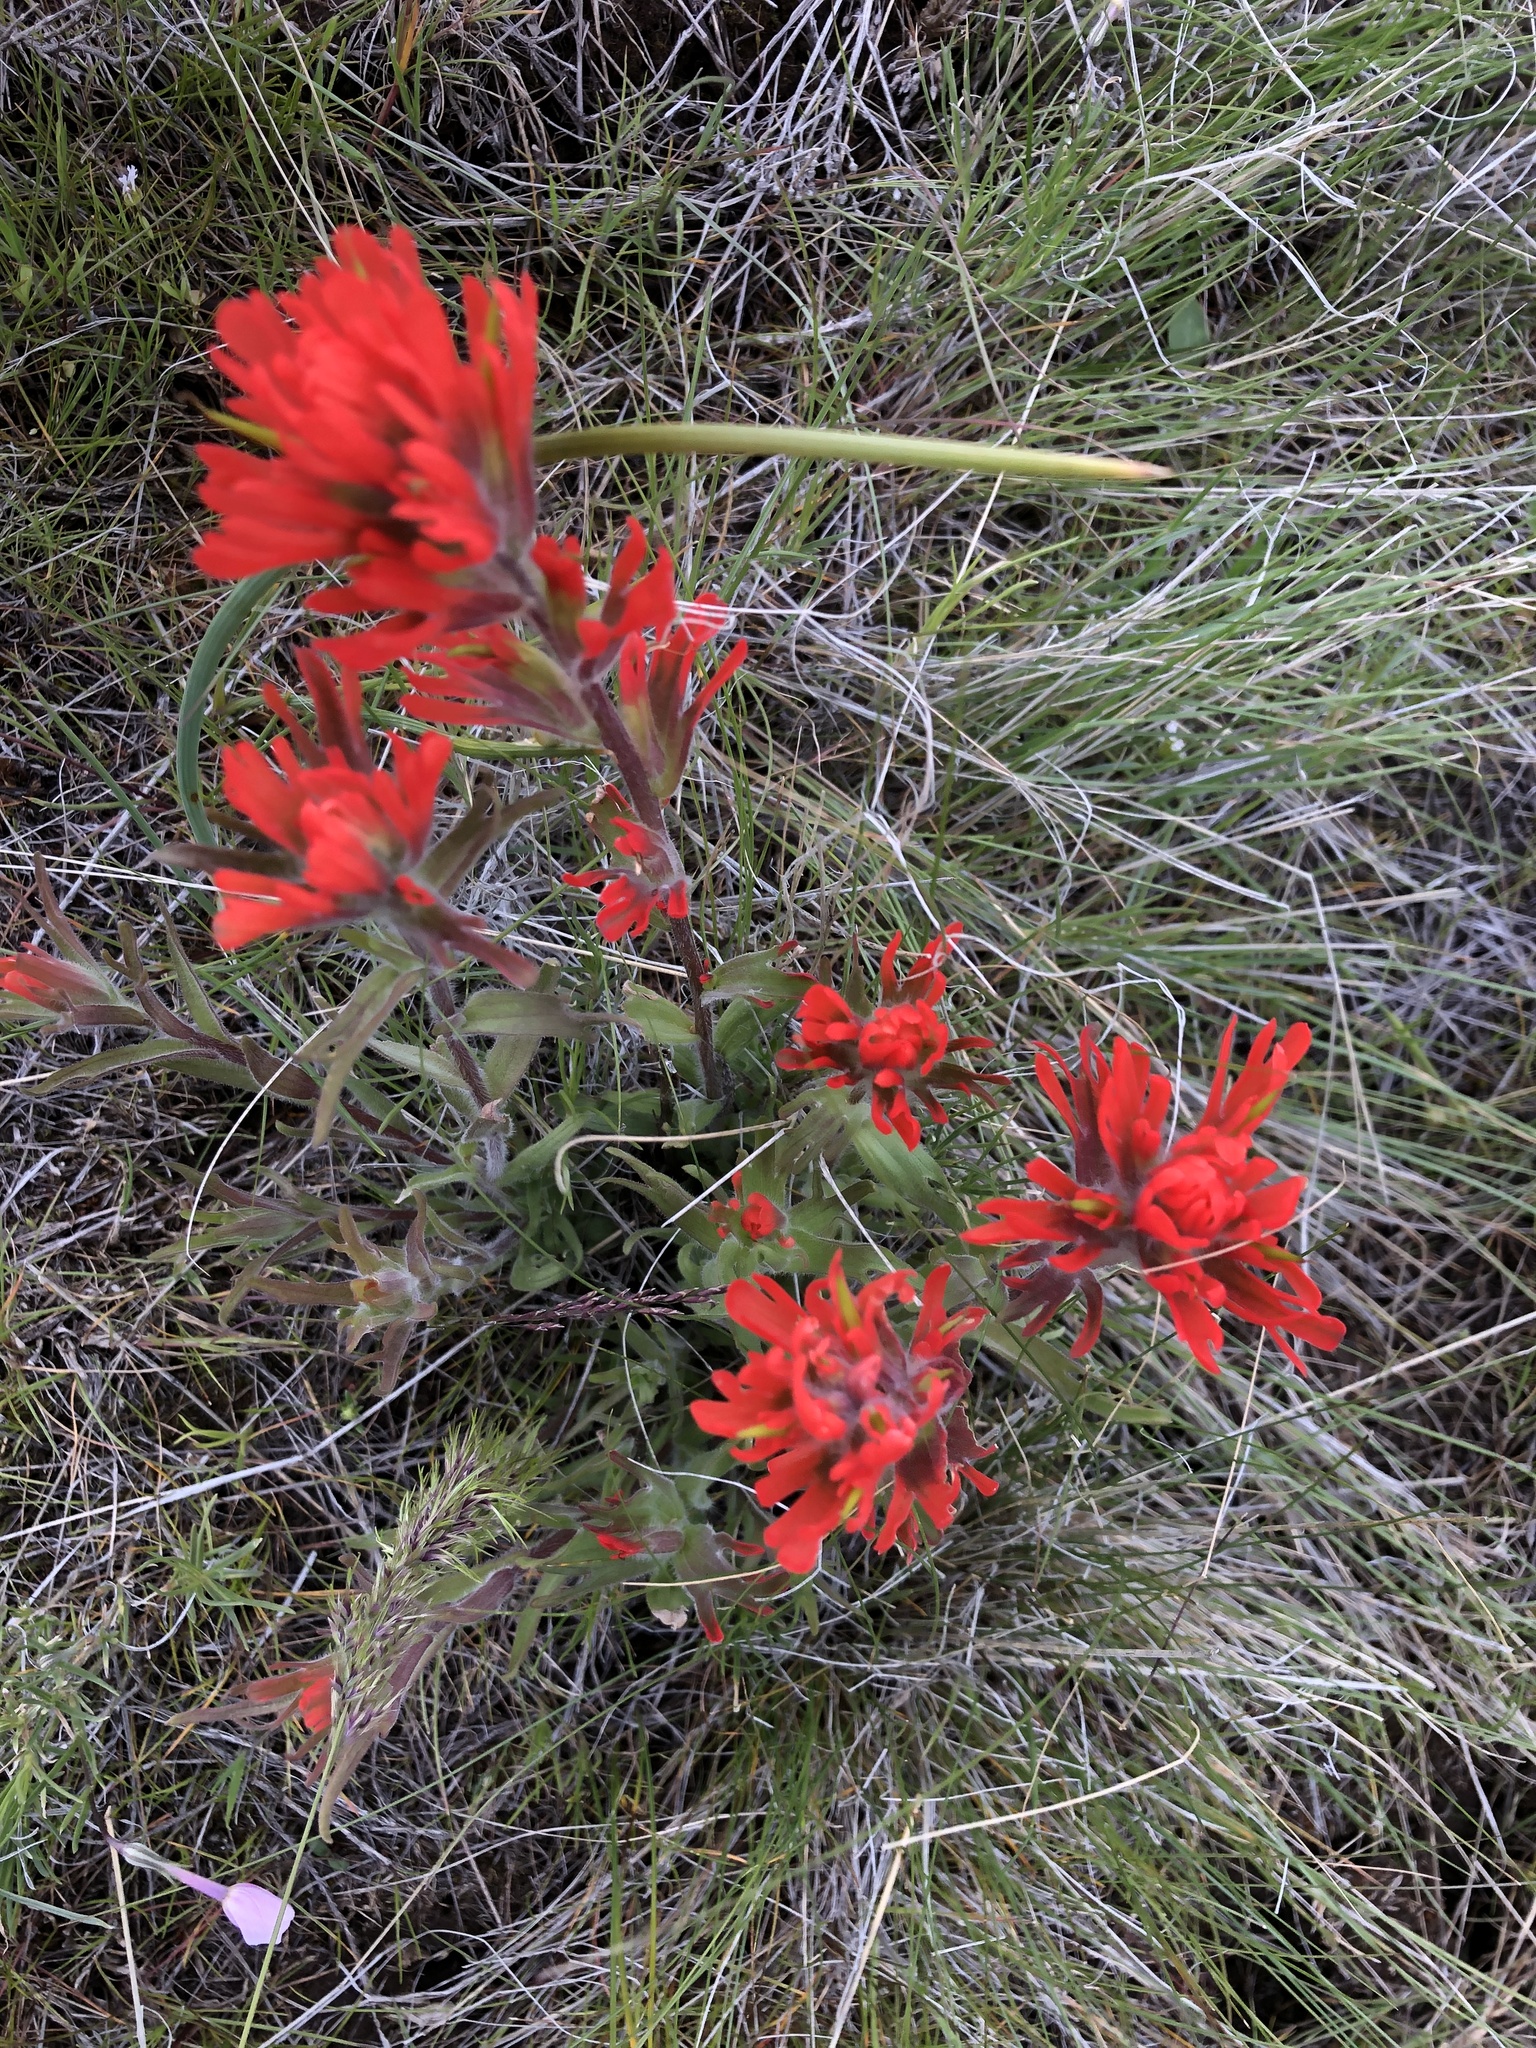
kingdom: Plantae
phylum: Tracheophyta
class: Magnoliopsida
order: Lamiales
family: Orobanchaceae
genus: Castilleja
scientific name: Castilleja hispida
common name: Bristly paintbrush
